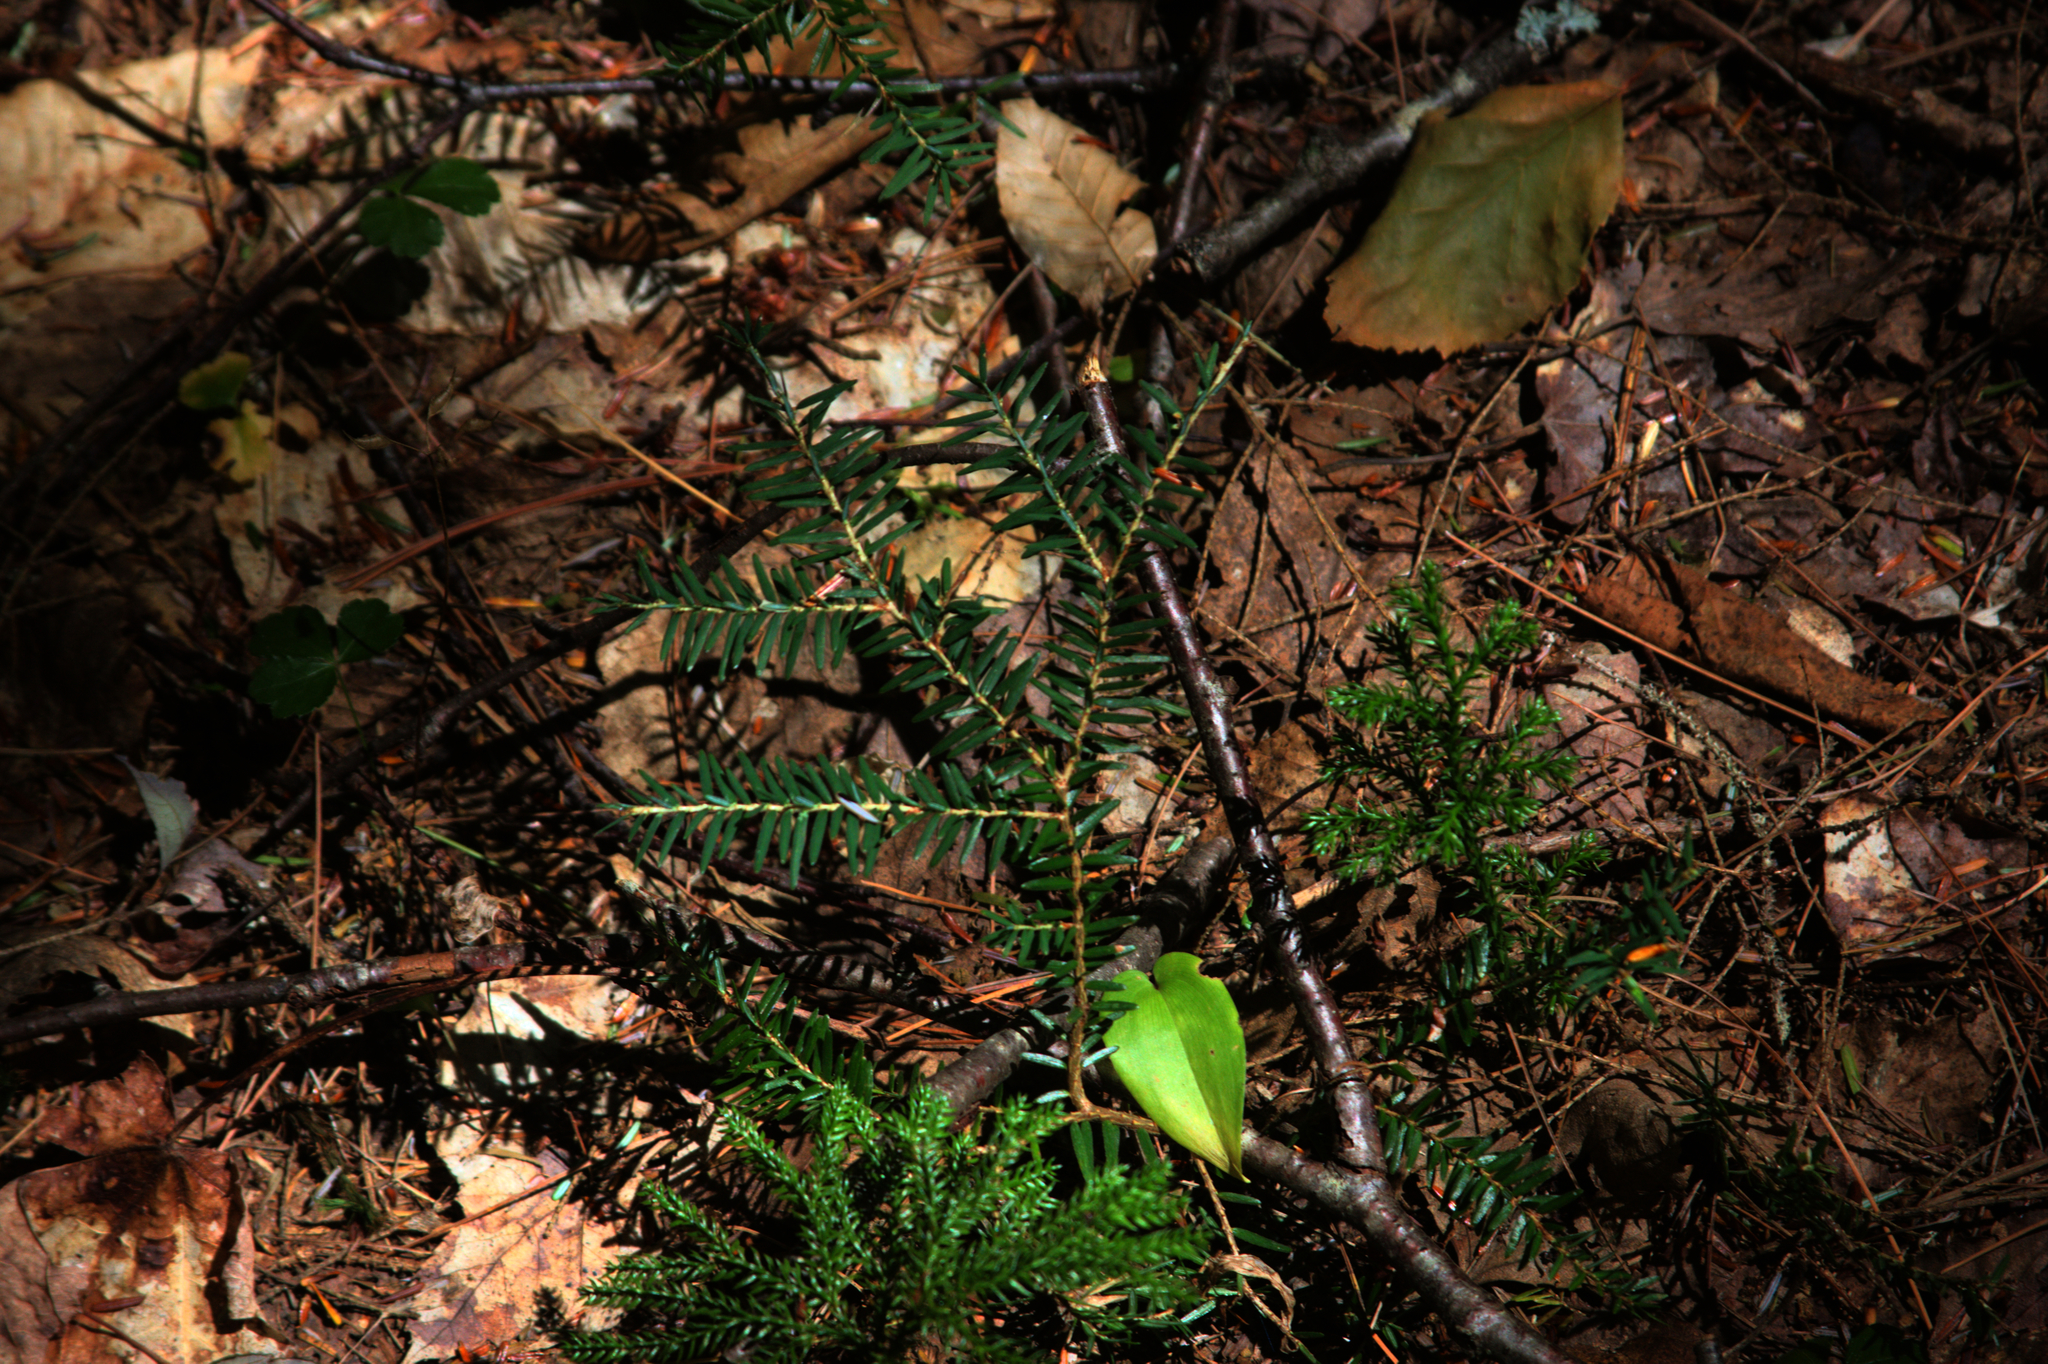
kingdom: Plantae
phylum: Tracheophyta
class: Liliopsida
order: Asparagales
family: Asparagaceae
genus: Maianthemum
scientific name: Maianthemum canadense
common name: False lily-of-the-valley
